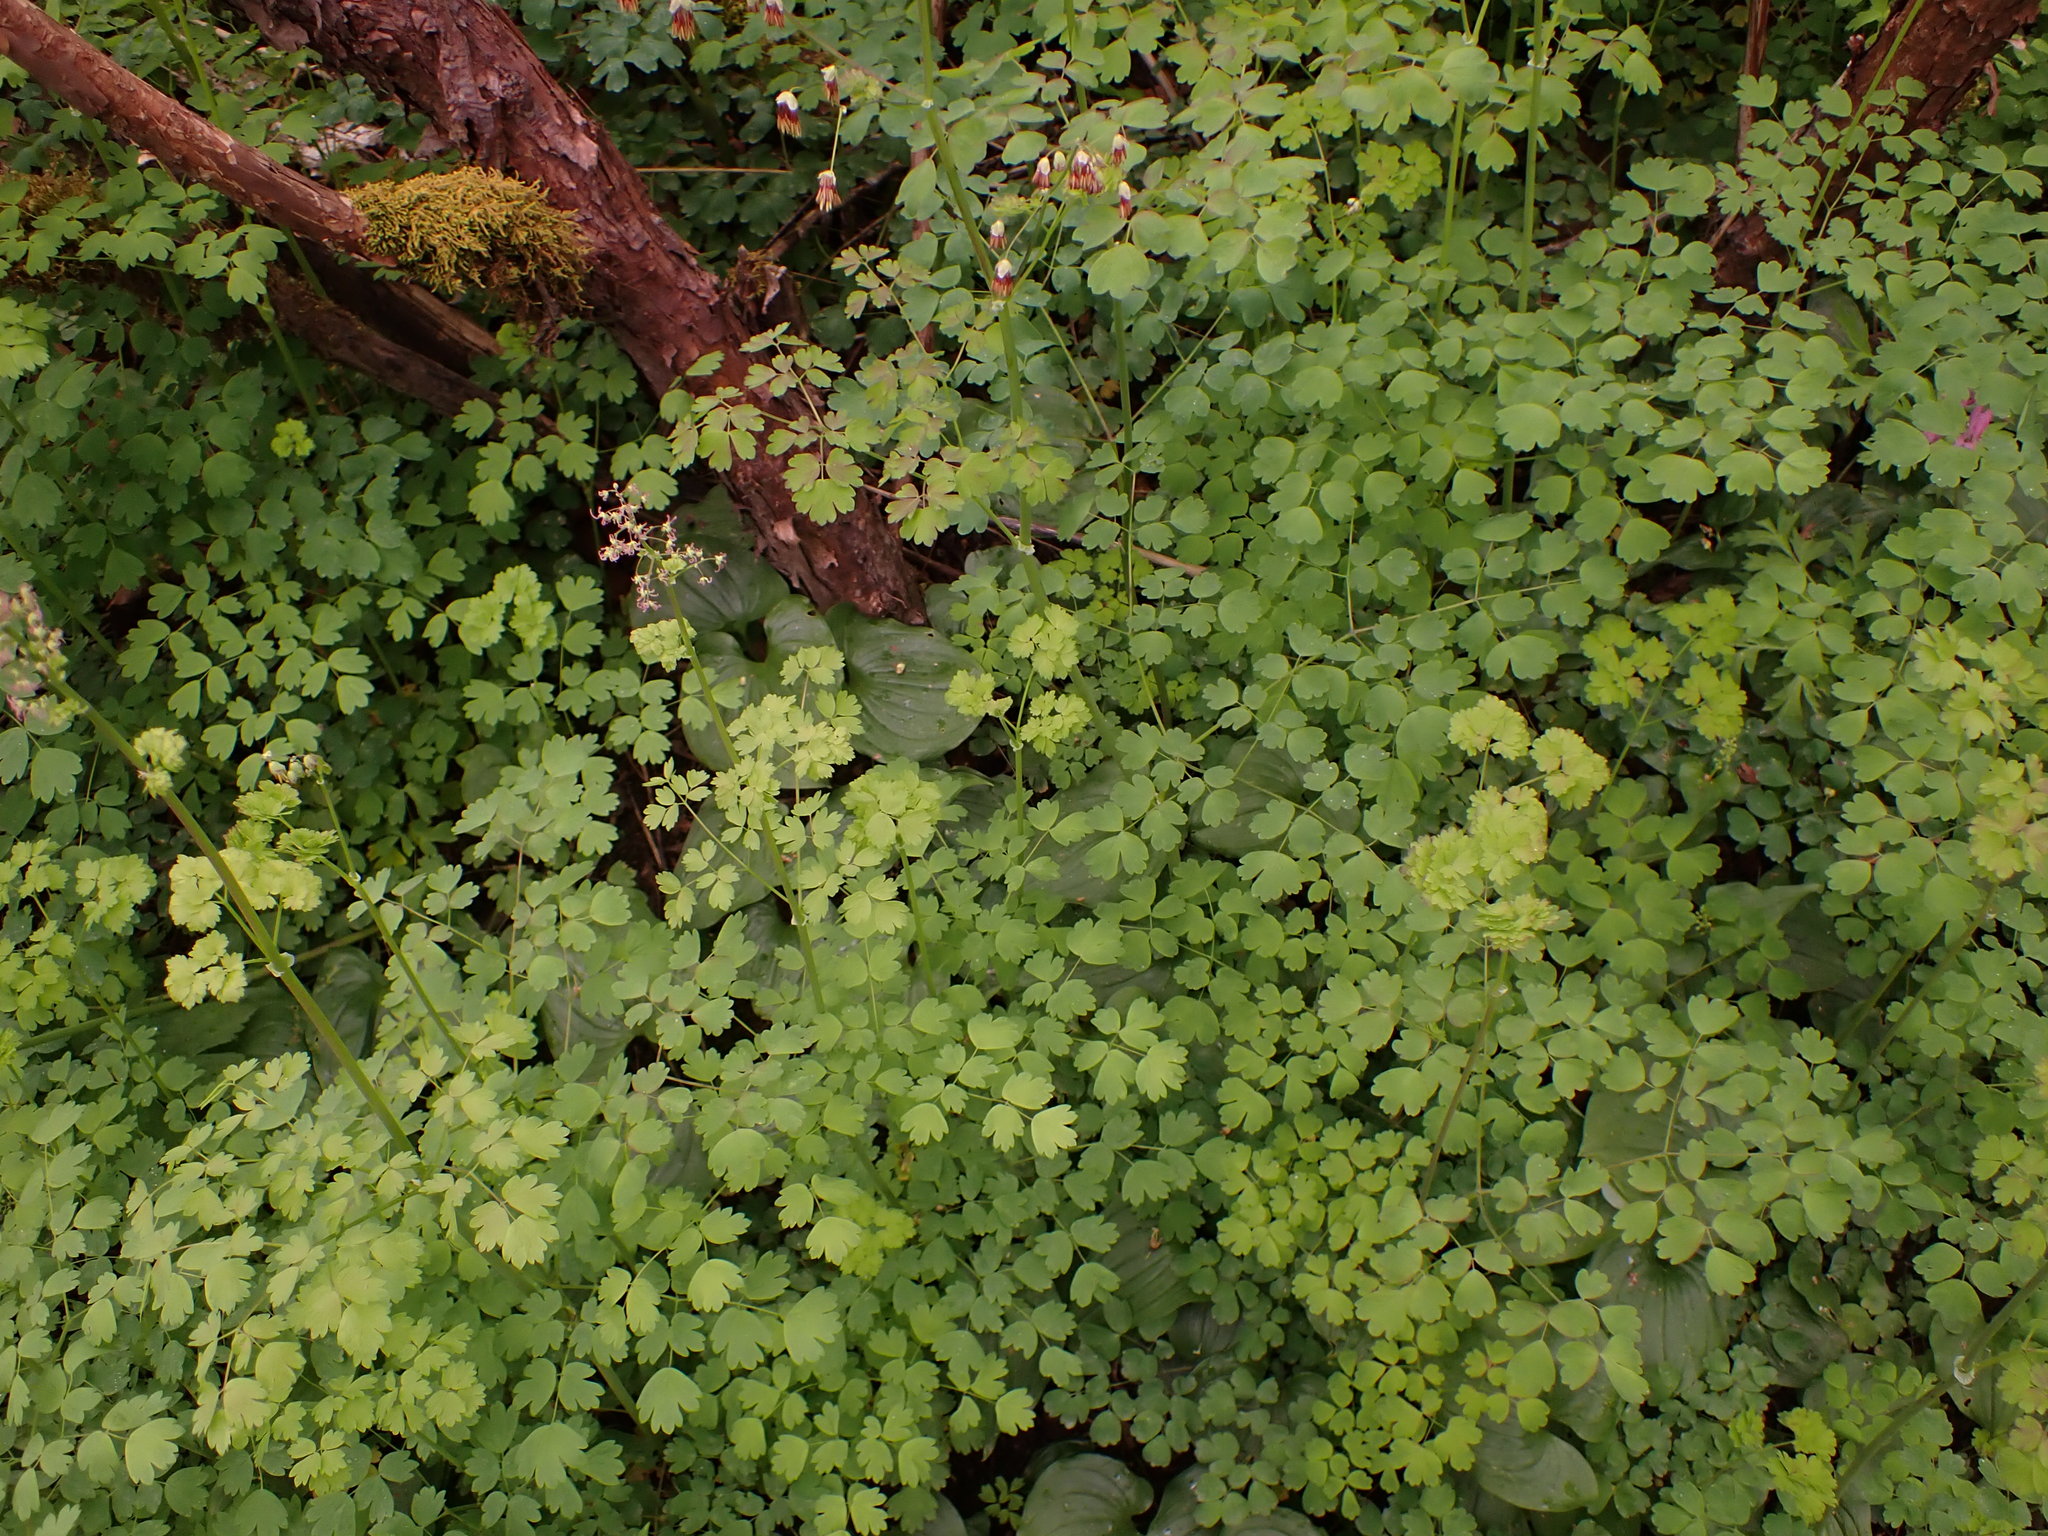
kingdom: Plantae
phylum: Tracheophyta
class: Magnoliopsida
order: Ranunculales
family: Ranunculaceae
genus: Thalictrum
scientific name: Thalictrum occidentale
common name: Western meadow-rue
